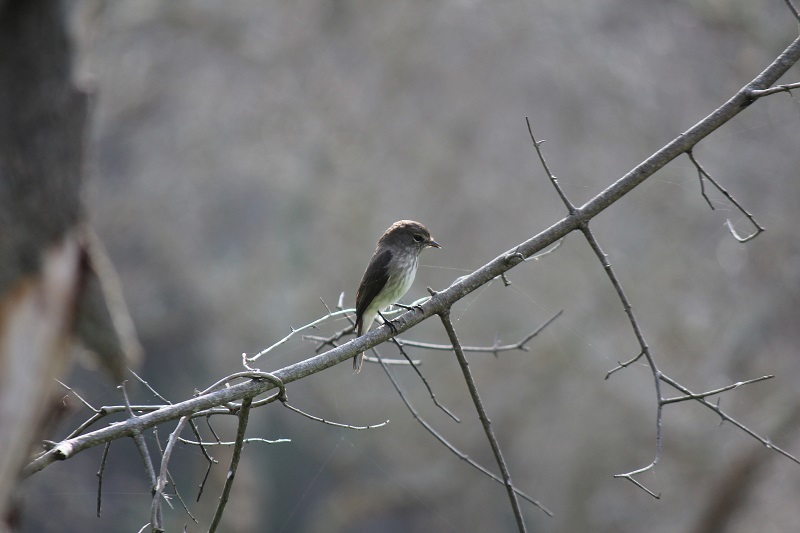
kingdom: Animalia
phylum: Chordata
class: Aves
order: Passeriformes
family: Muscicapidae
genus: Muscicapa
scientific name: Muscicapa adusta
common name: African dusky flycatcher
